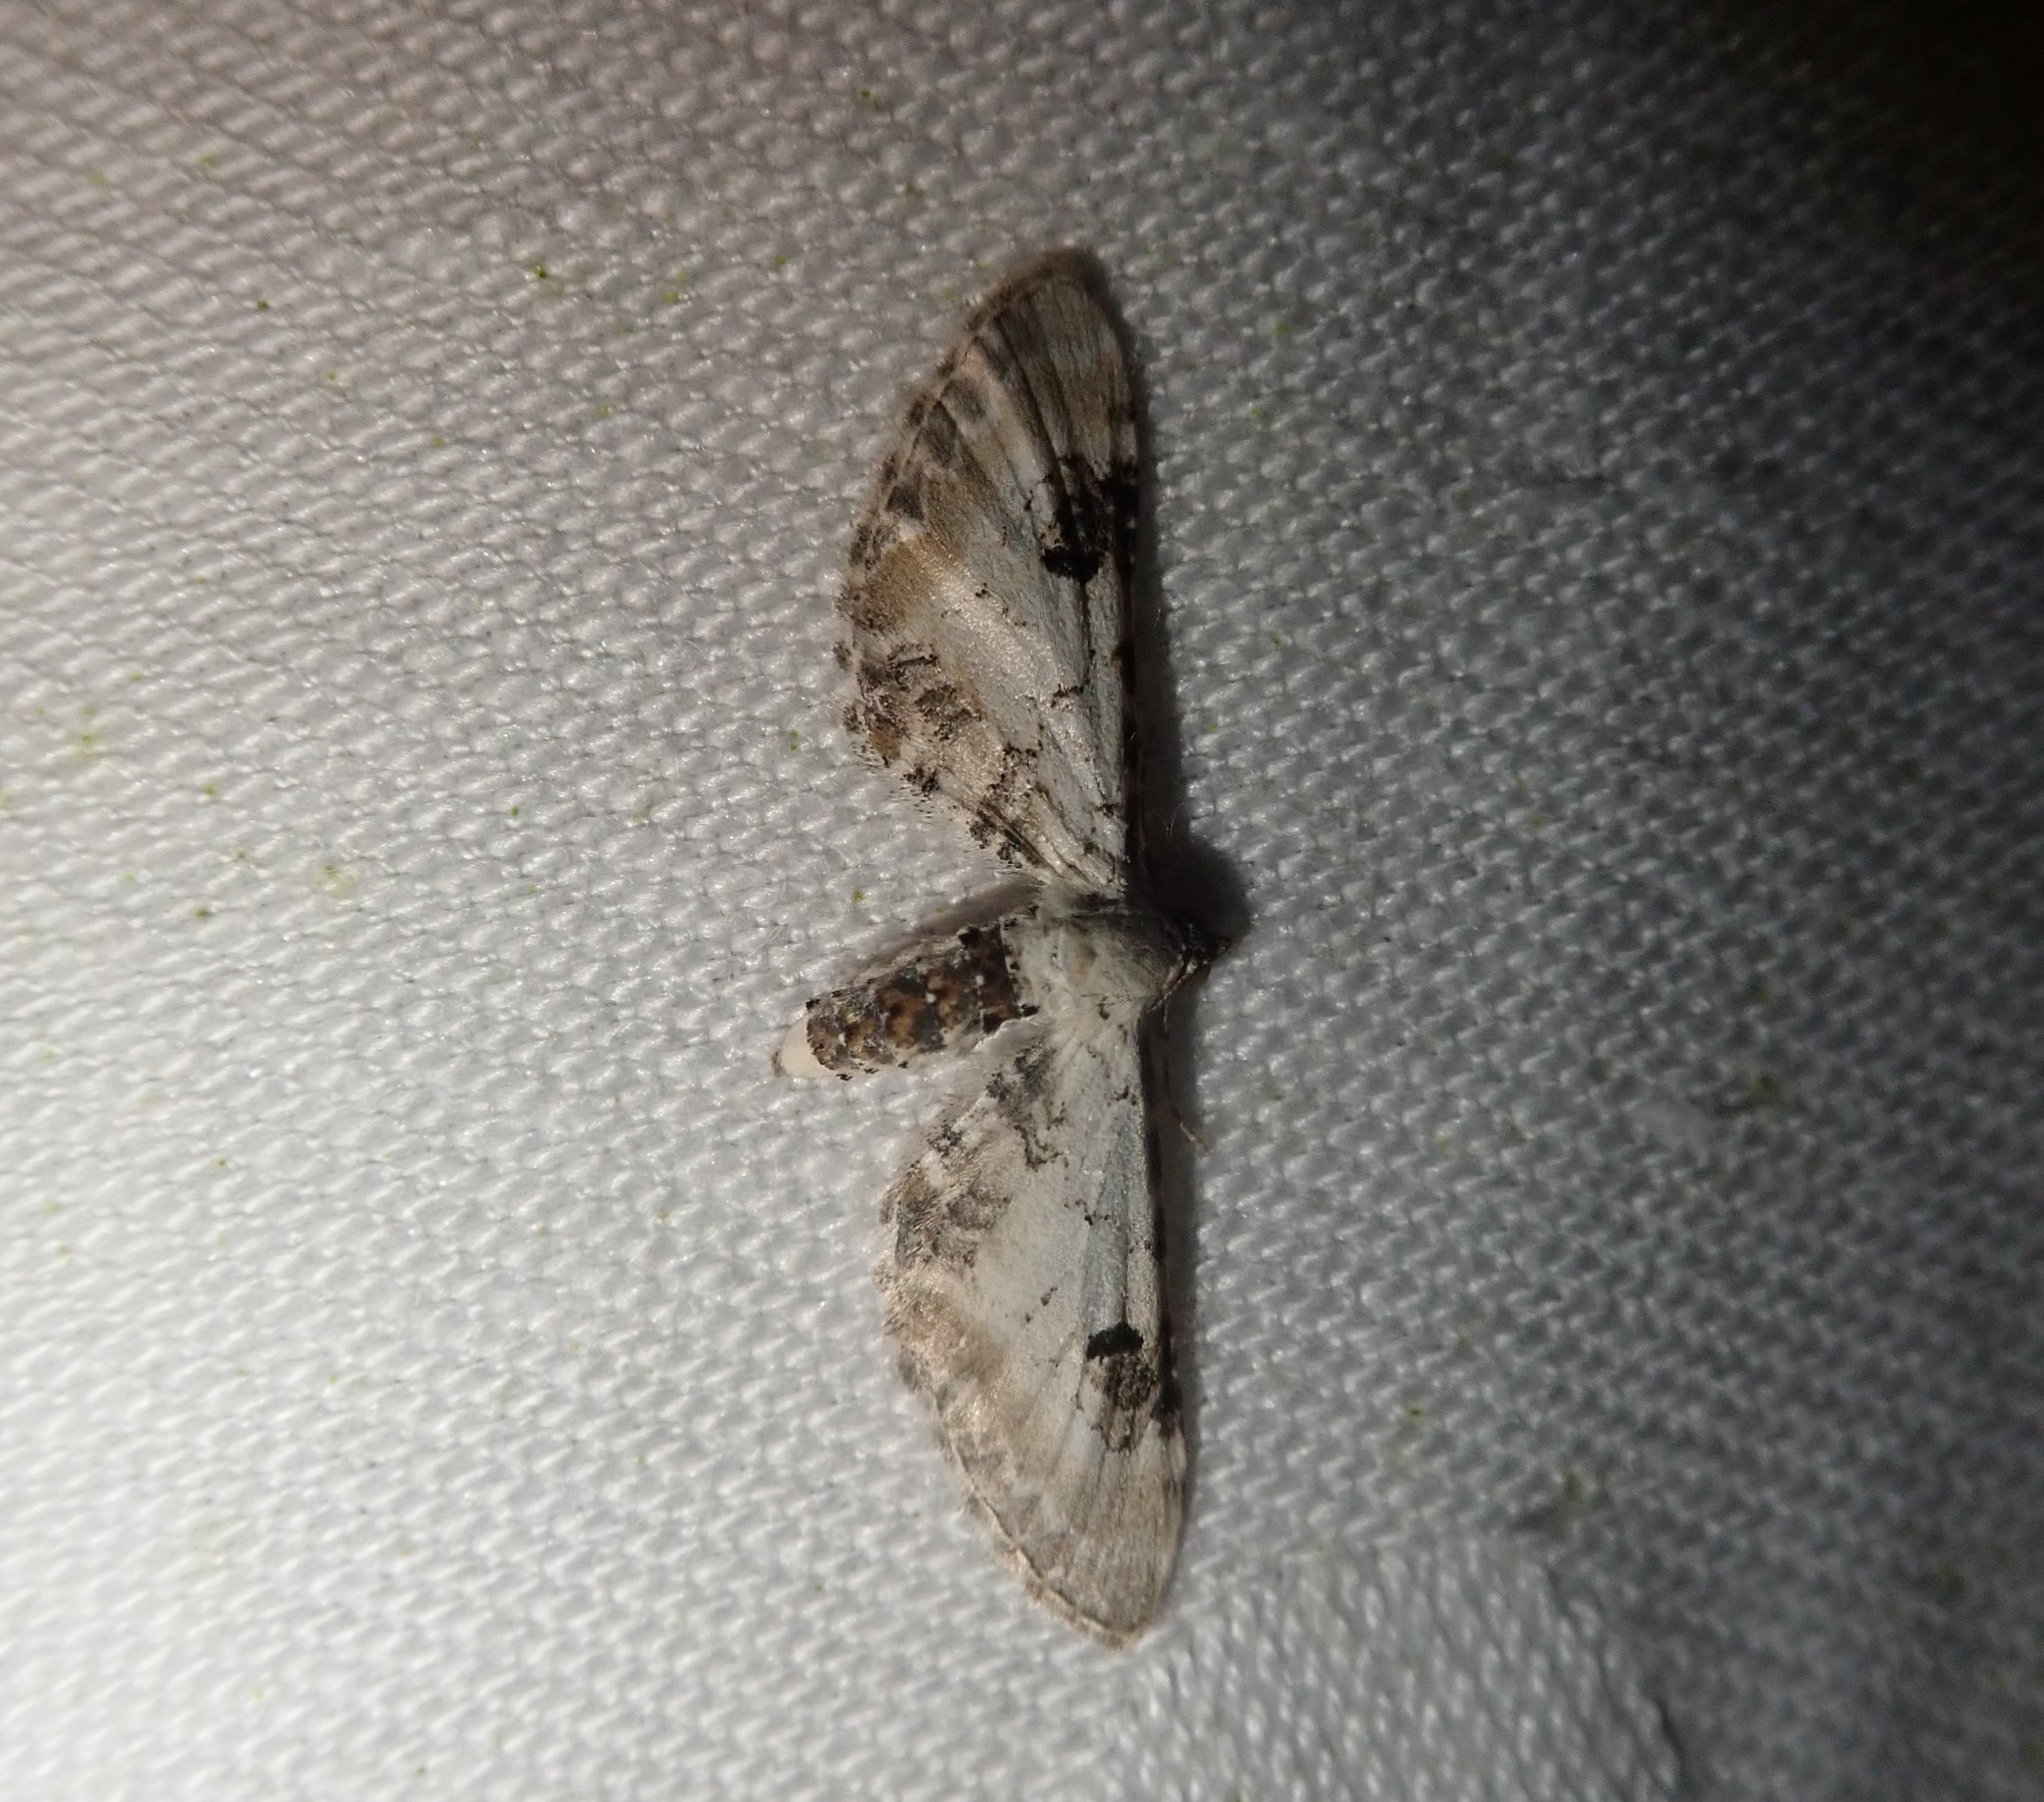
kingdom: Animalia
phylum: Arthropoda
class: Insecta
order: Lepidoptera
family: Geometridae
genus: Eupithecia
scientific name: Eupithecia centaureata
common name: Lime-speck pug
